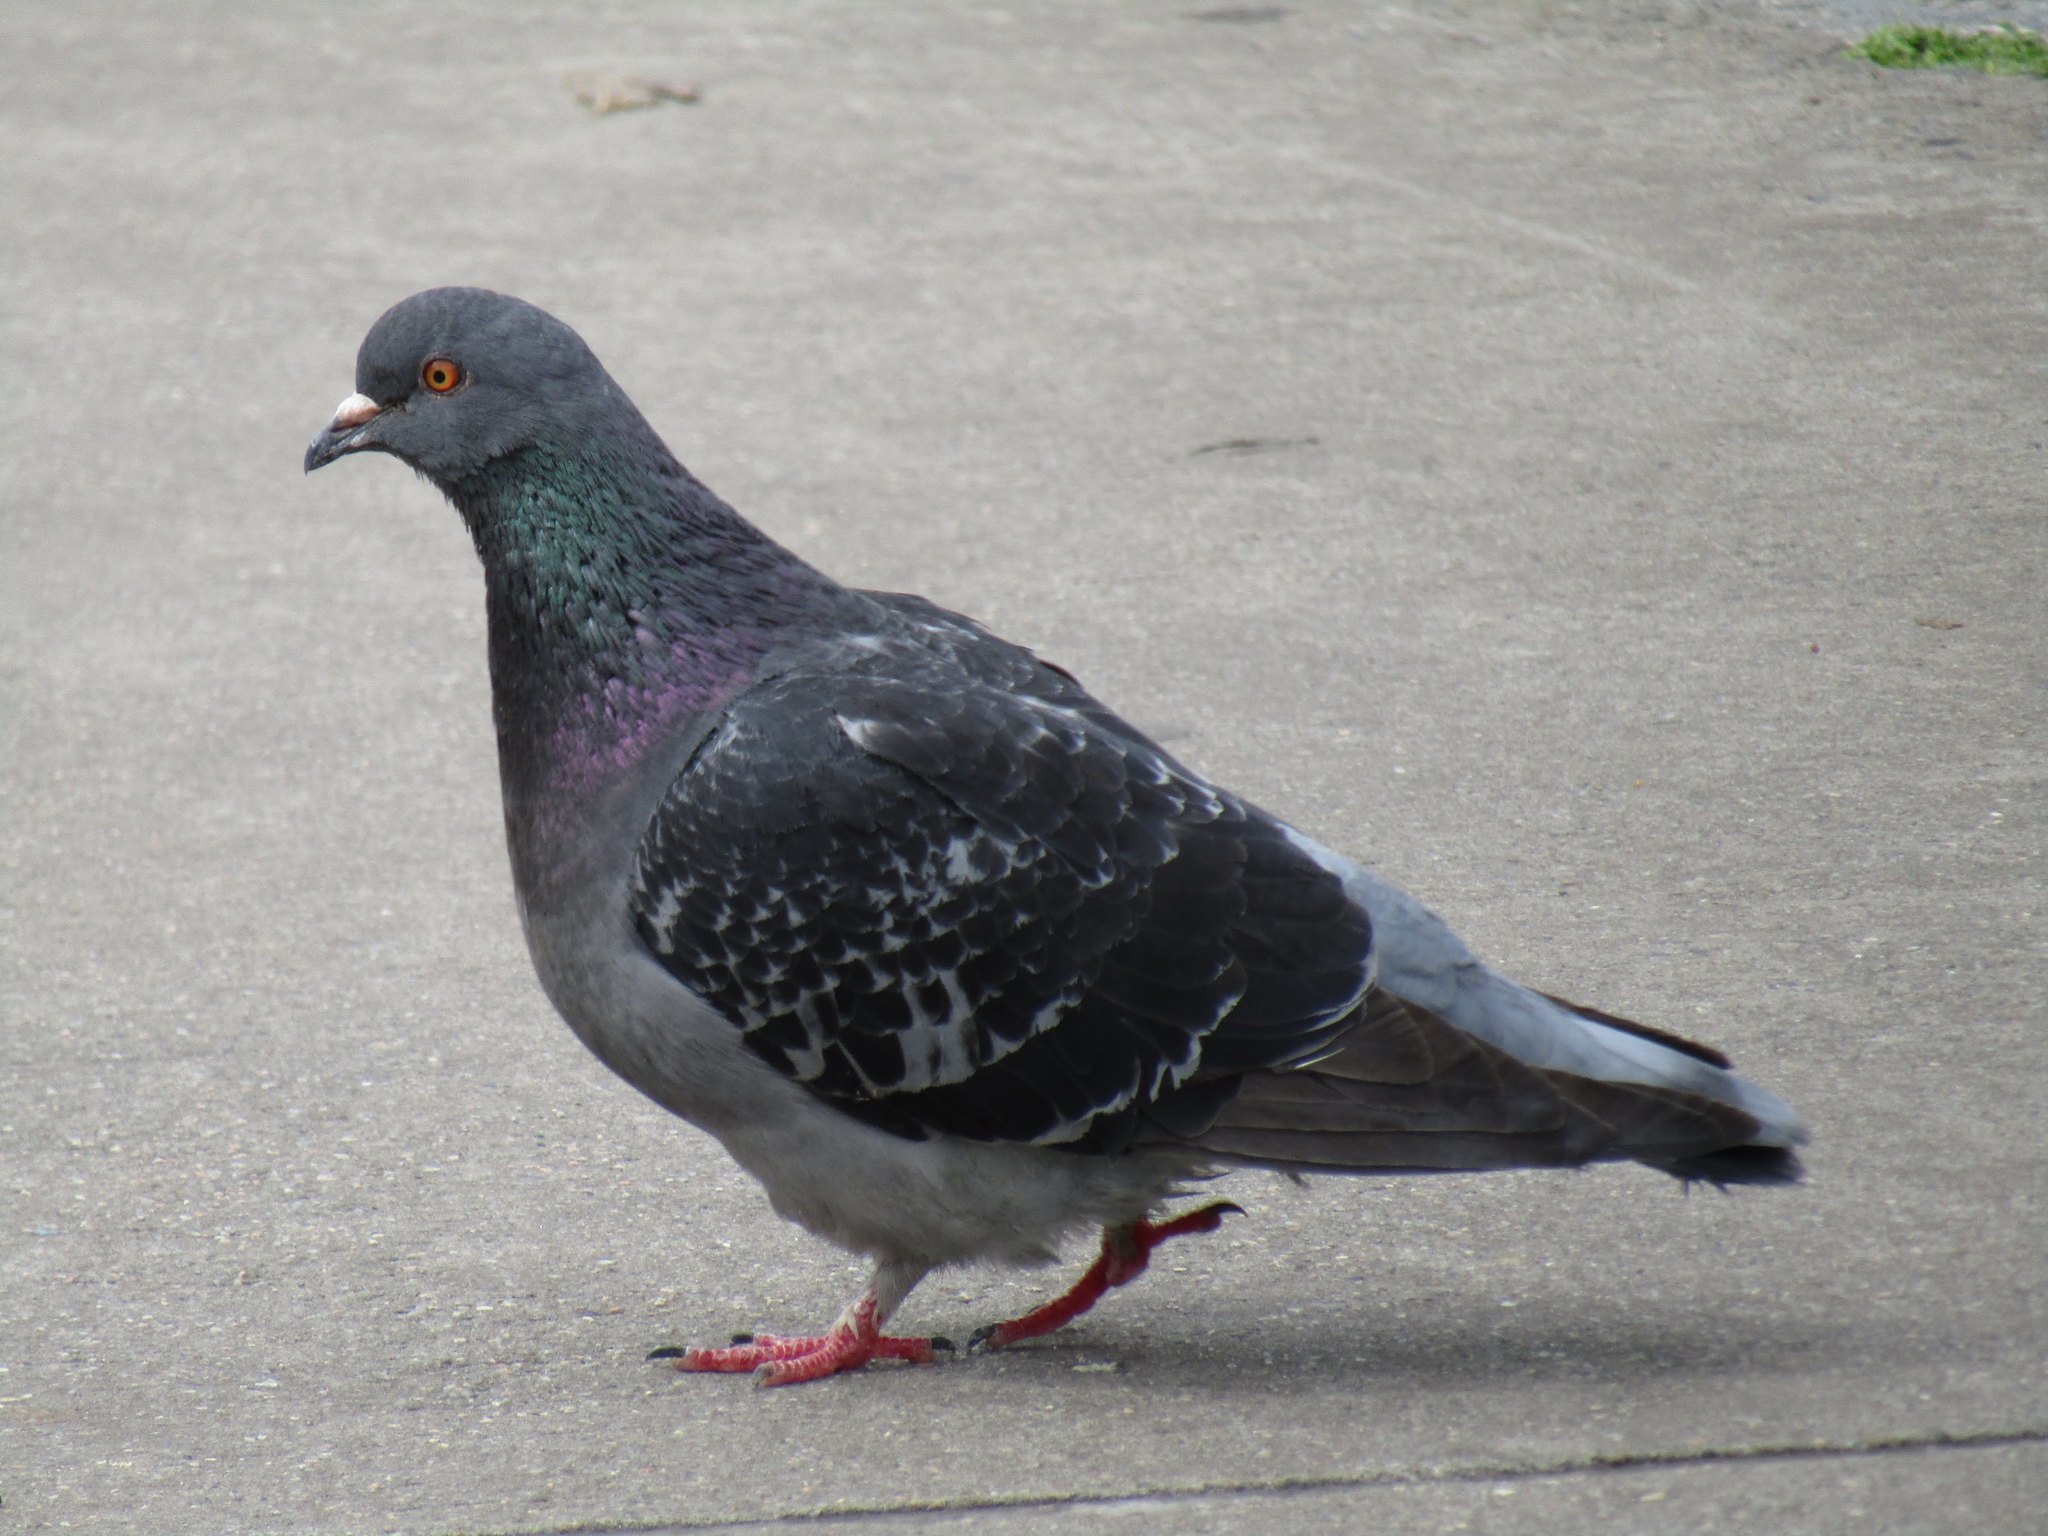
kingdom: Animalia
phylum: Chordata
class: Aves
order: Columbiformes
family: Columbidae
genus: Columba
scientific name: Columba livia
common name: Rock pigeon
